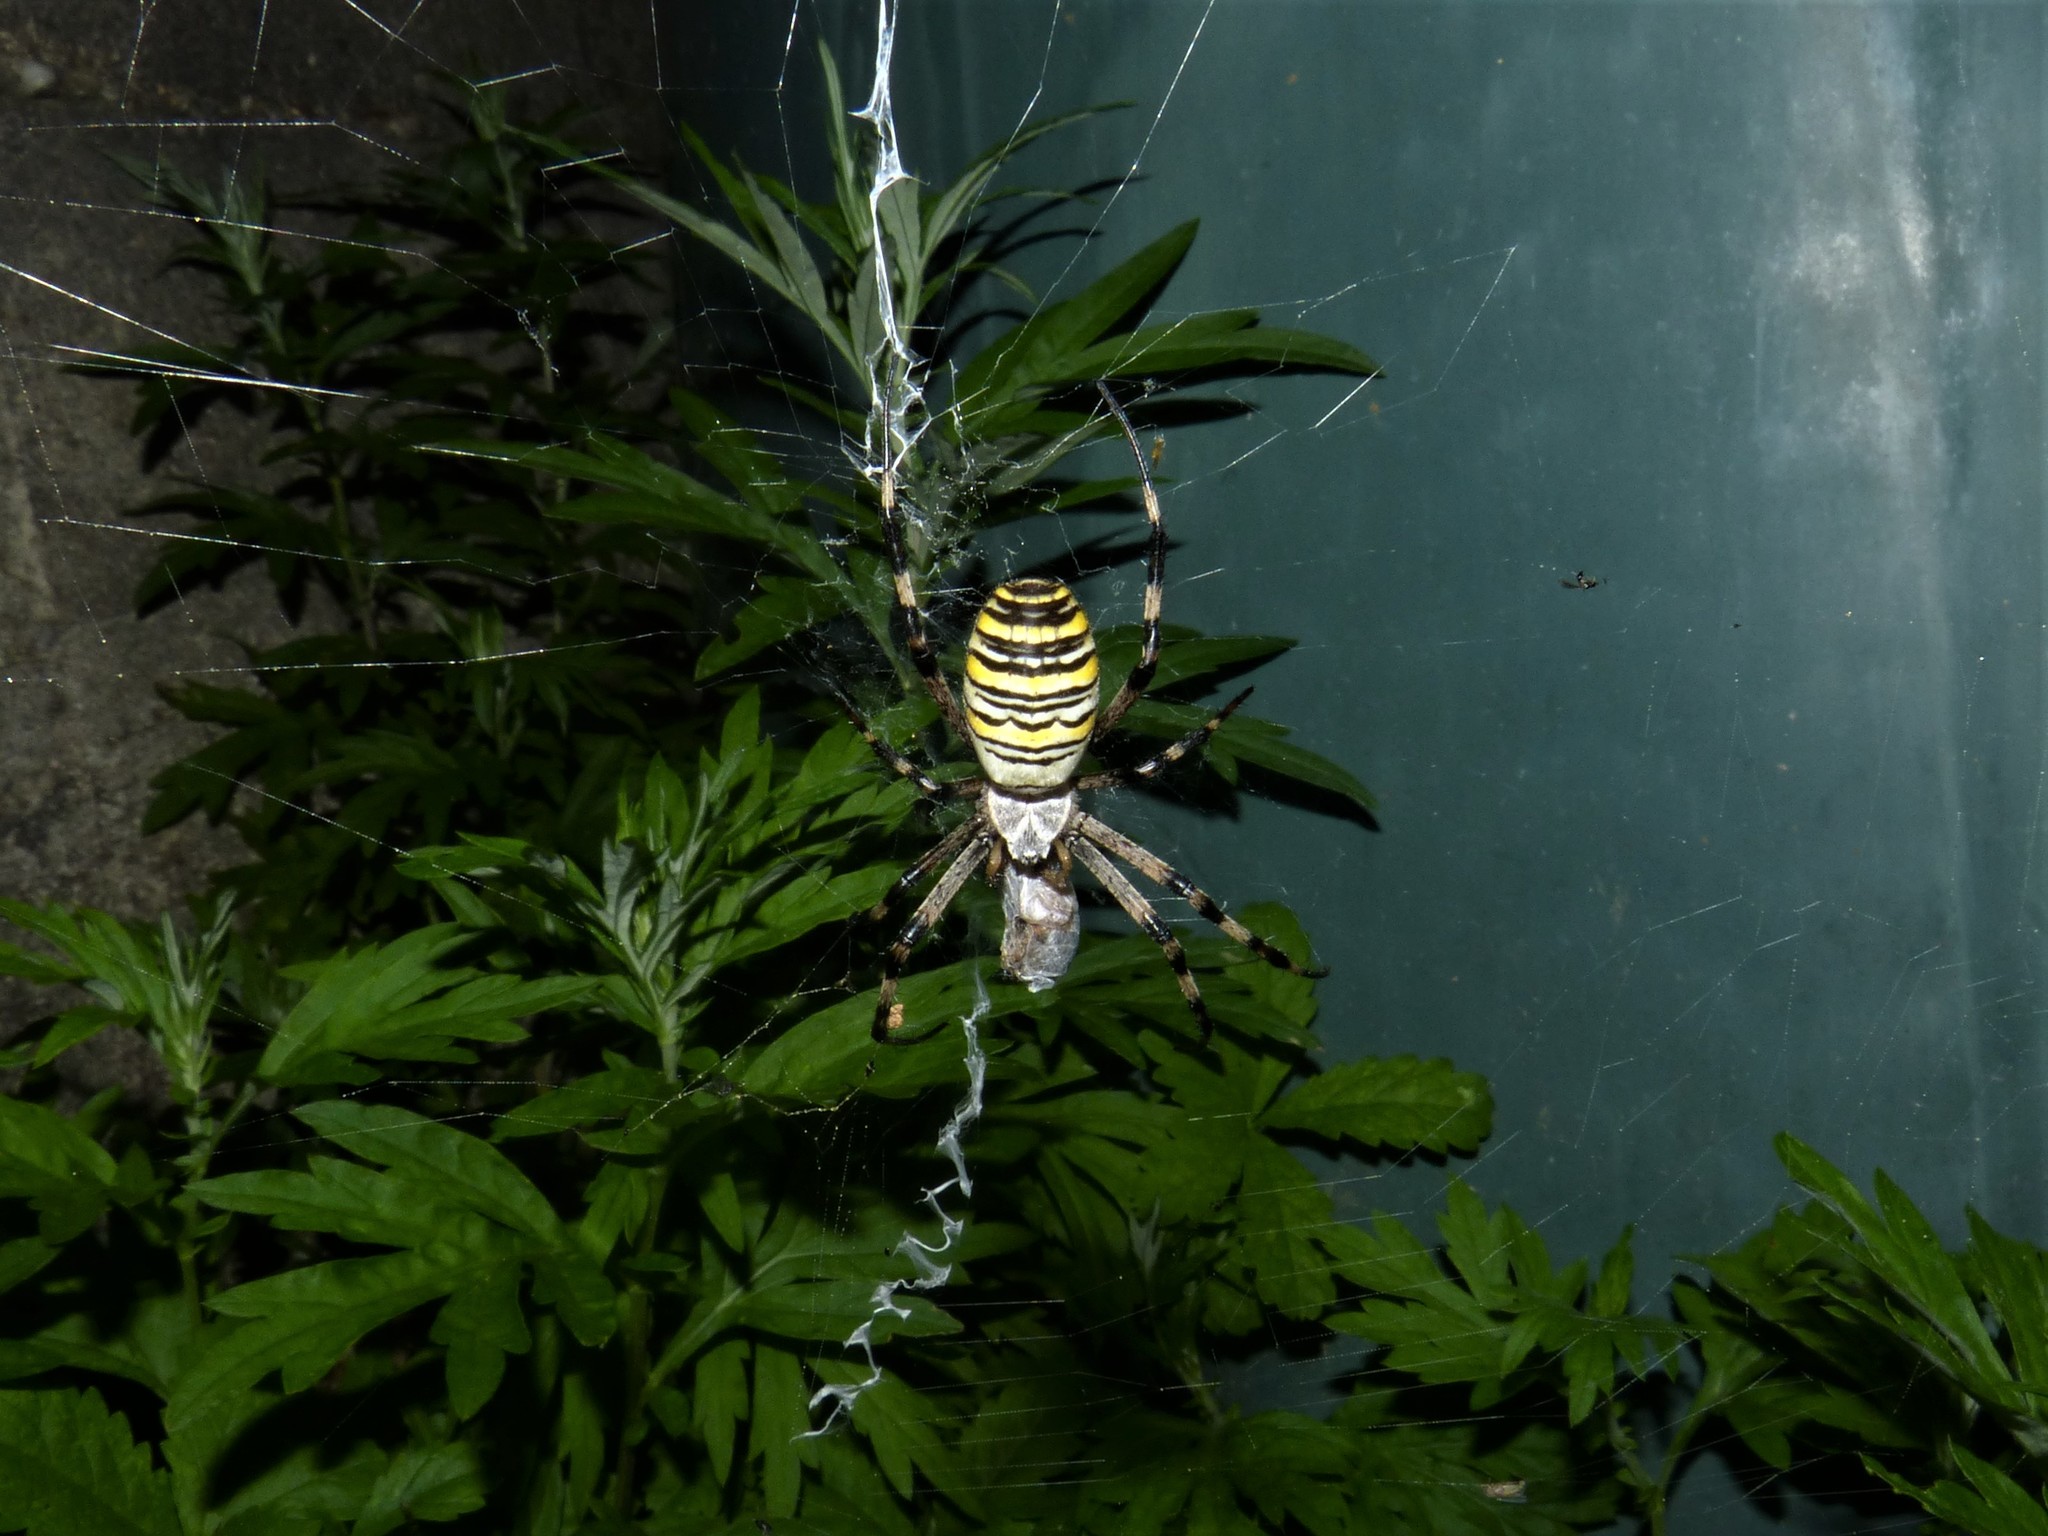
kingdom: Animalia
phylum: Arthropoda
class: Arachnida
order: Araneae
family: Araneidae
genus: Argiope
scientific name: Argiope bruennichi
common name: Wasp spider
